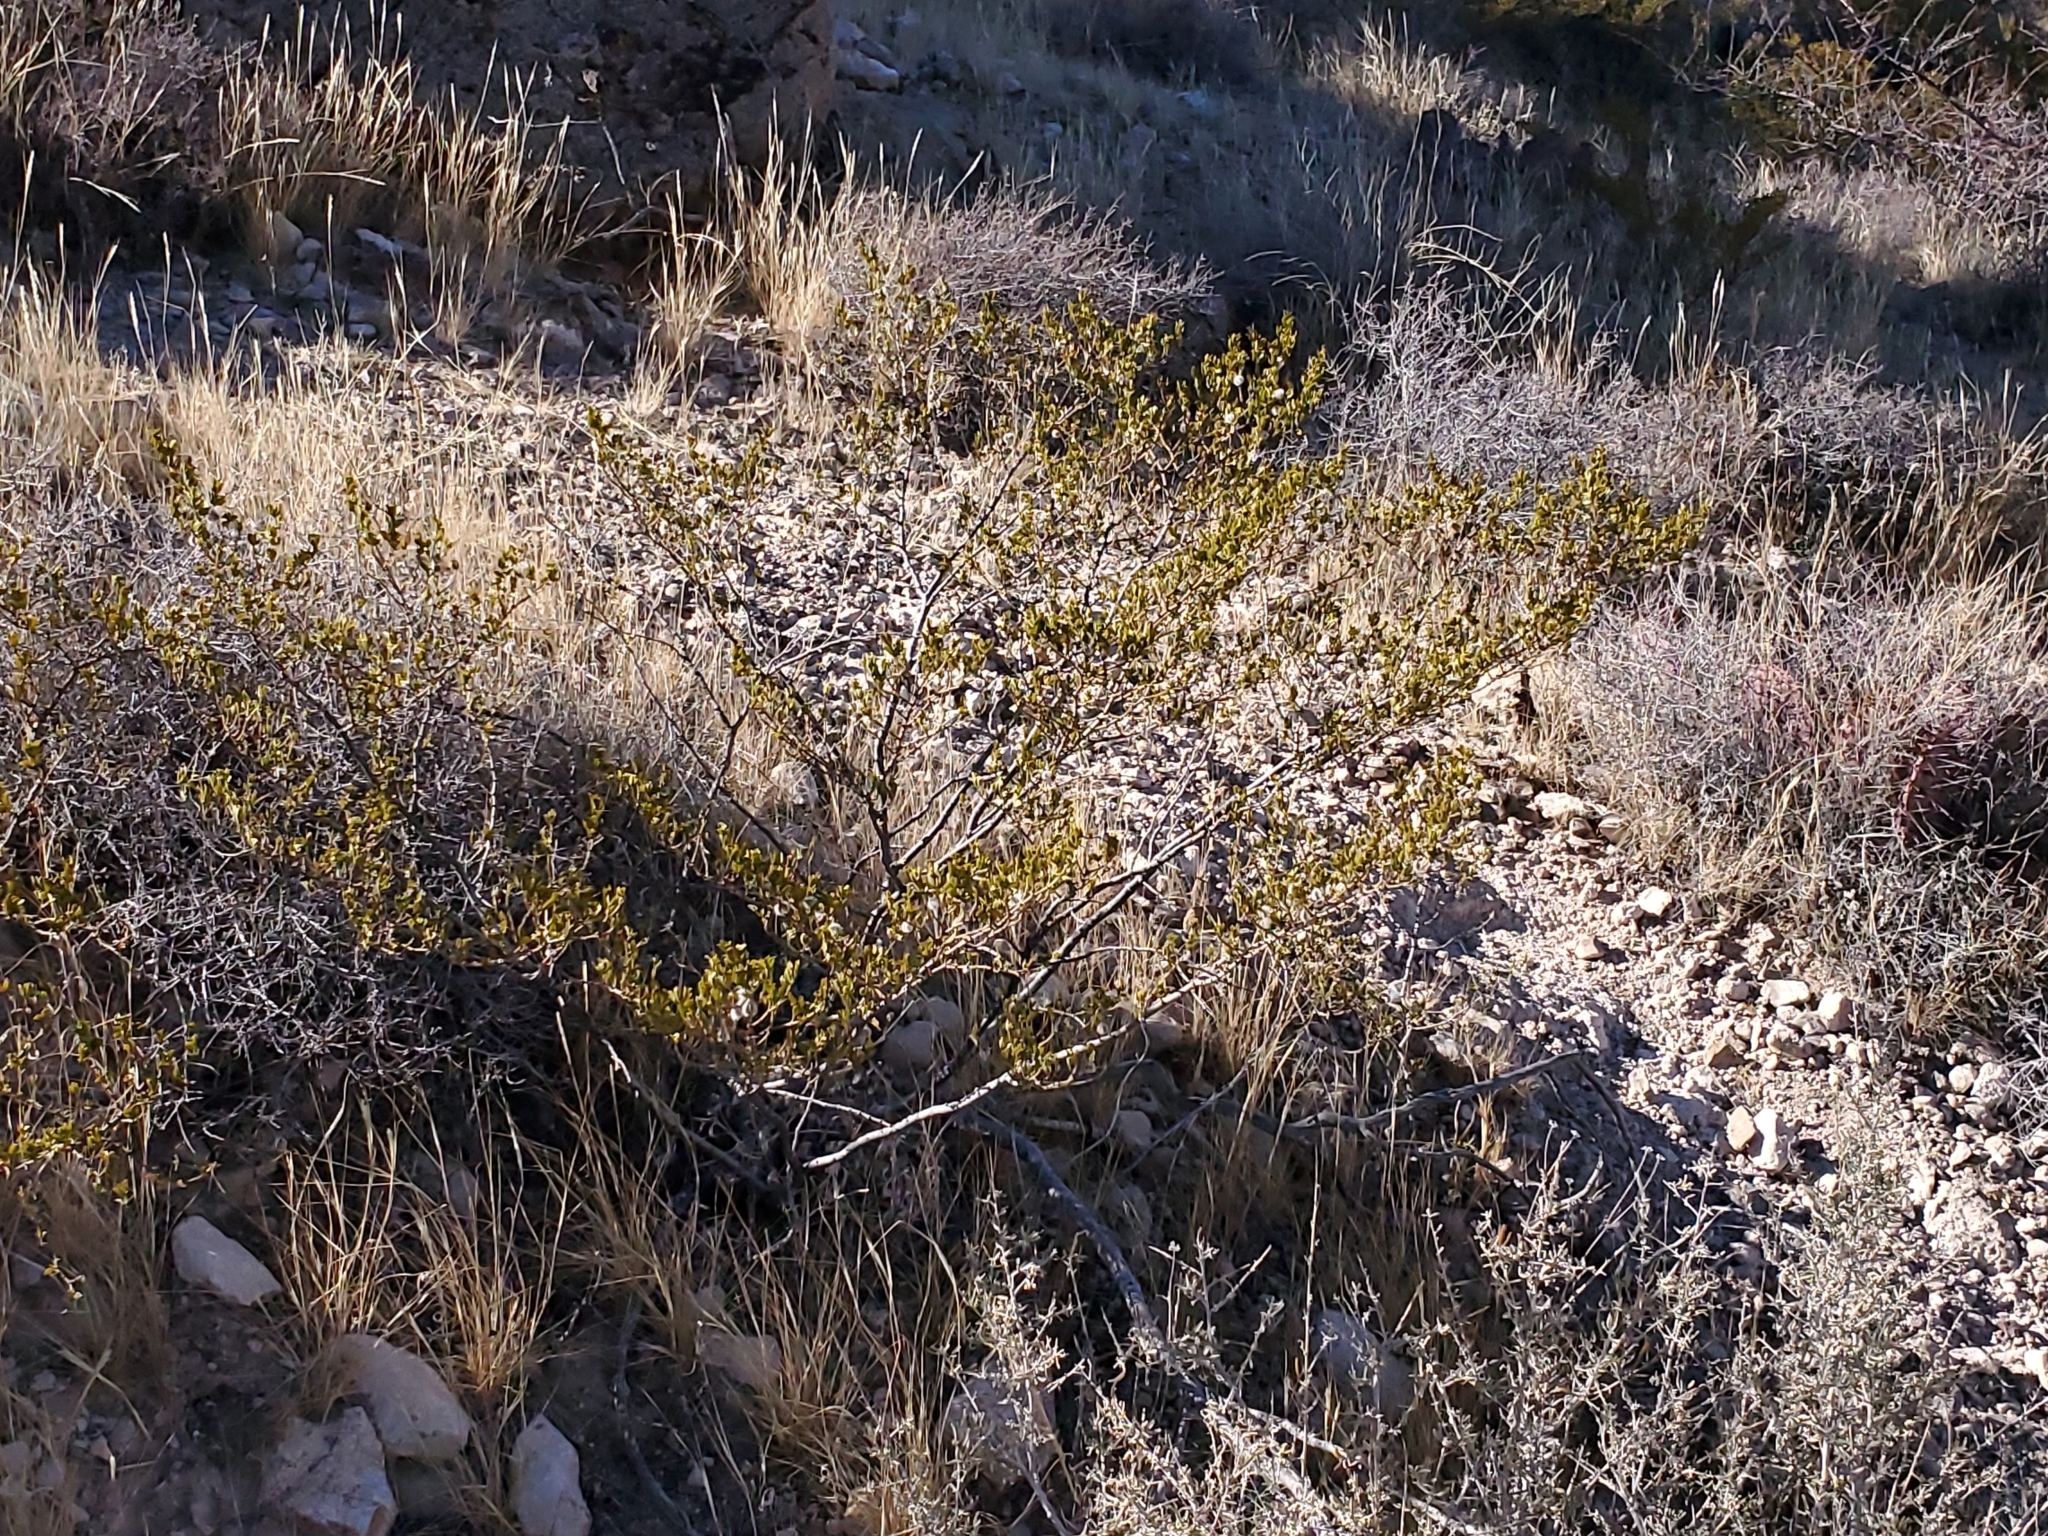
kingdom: Plantae
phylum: Tracheophyta
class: Magnoliopsida
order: Zygophyllales
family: Zygophyllaceae
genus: Larrea
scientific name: Larrea tridentata
